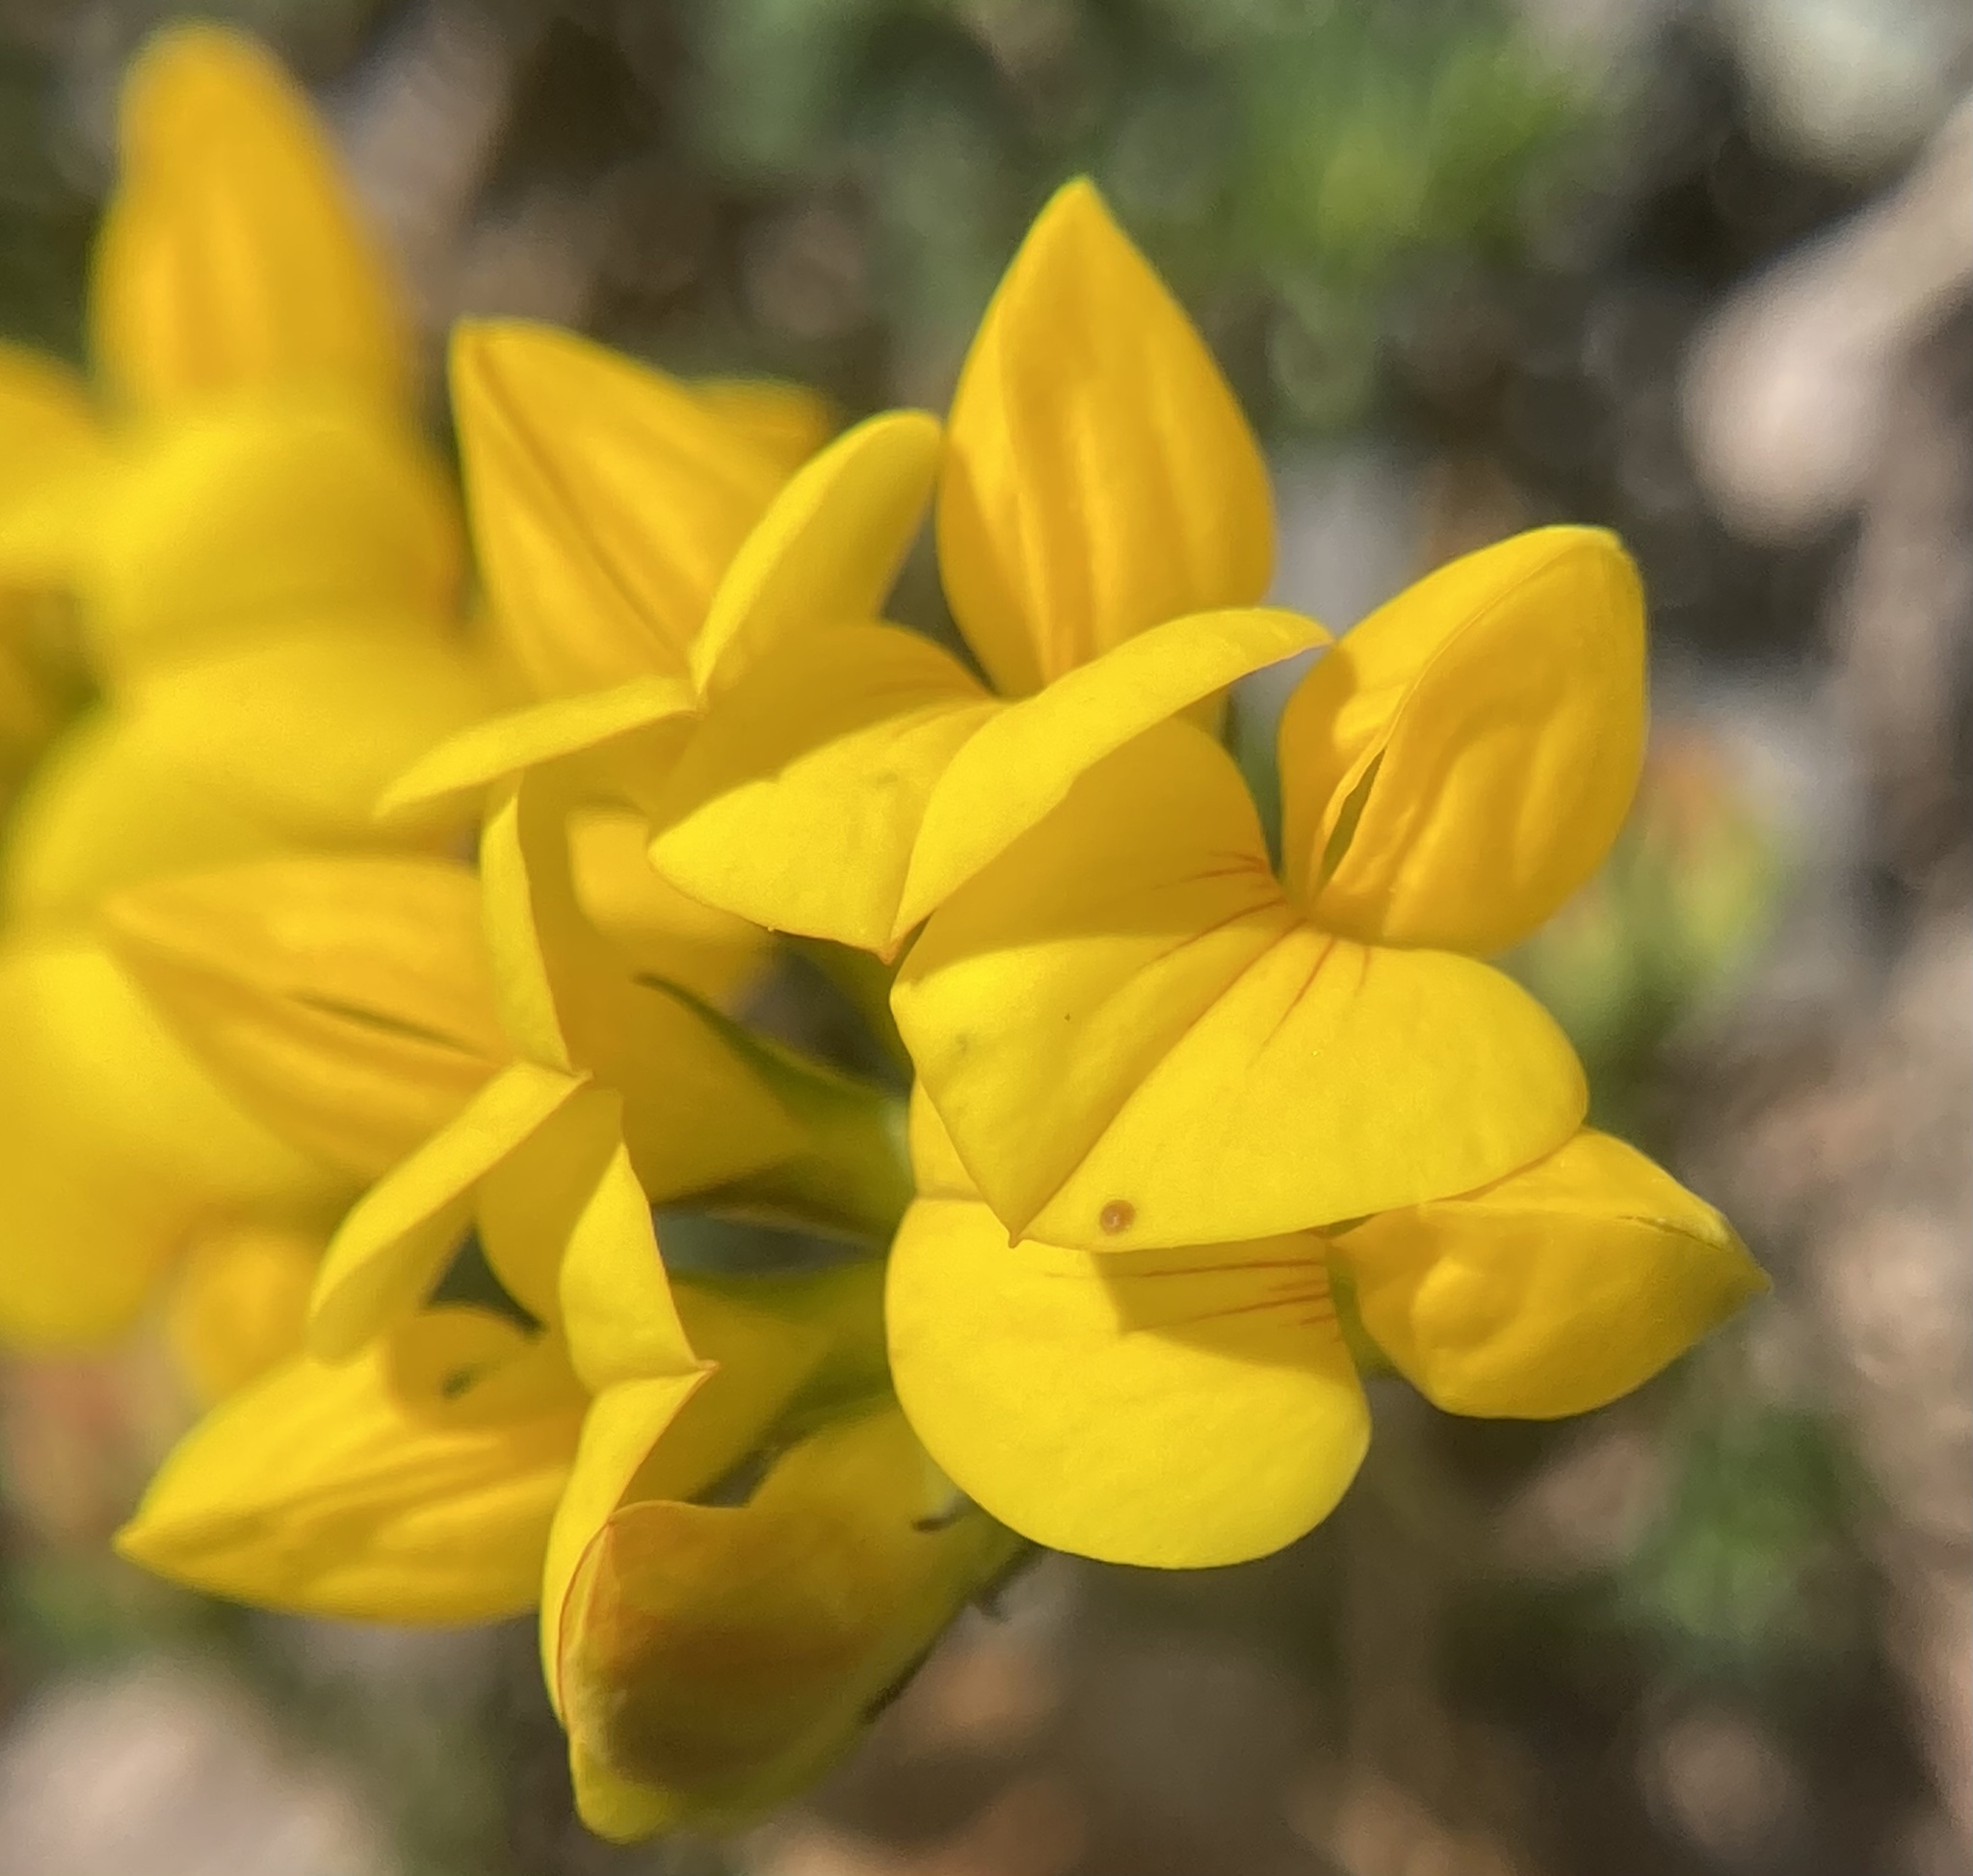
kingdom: Plantae
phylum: Tracheophyta
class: Magnoliopsida
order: Fabales
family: Fabaceae
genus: Lotus
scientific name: Lotus corniculatus
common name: Common bird's-foot-trefoil
